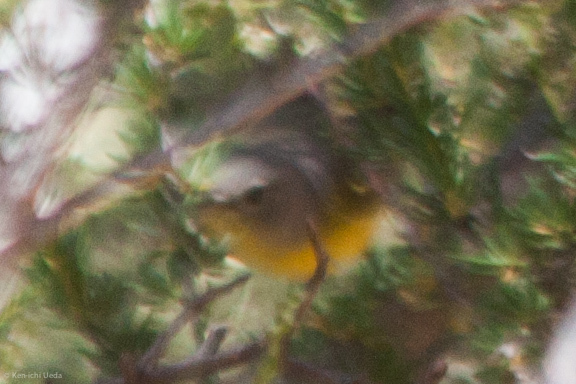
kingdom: Animalia
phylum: Chordata
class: Aves
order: Passeriformes
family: Parulidae
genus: Leiothlypis
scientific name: Leiothlypis ruficapilla
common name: Nashville warbler
